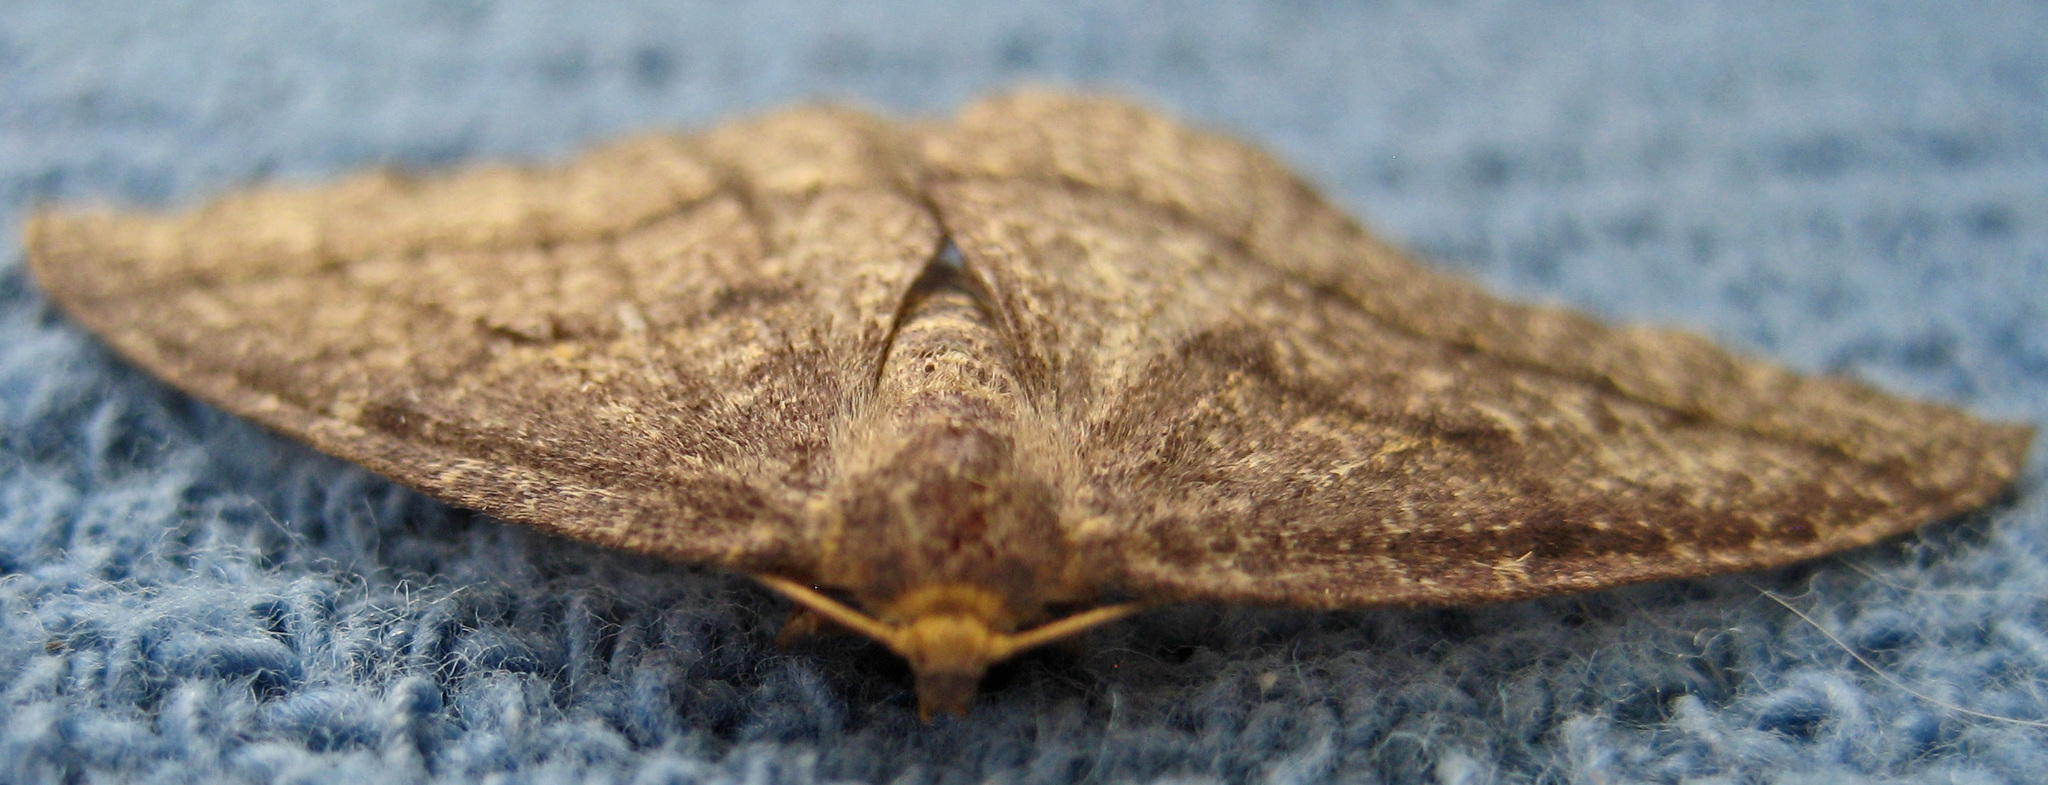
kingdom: Animalia
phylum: Arthropoda
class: Insecta
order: Lepidoptera
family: Geometridae
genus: Lambdina
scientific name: Lambdina fervidaria
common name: Curve-lined looper moth
